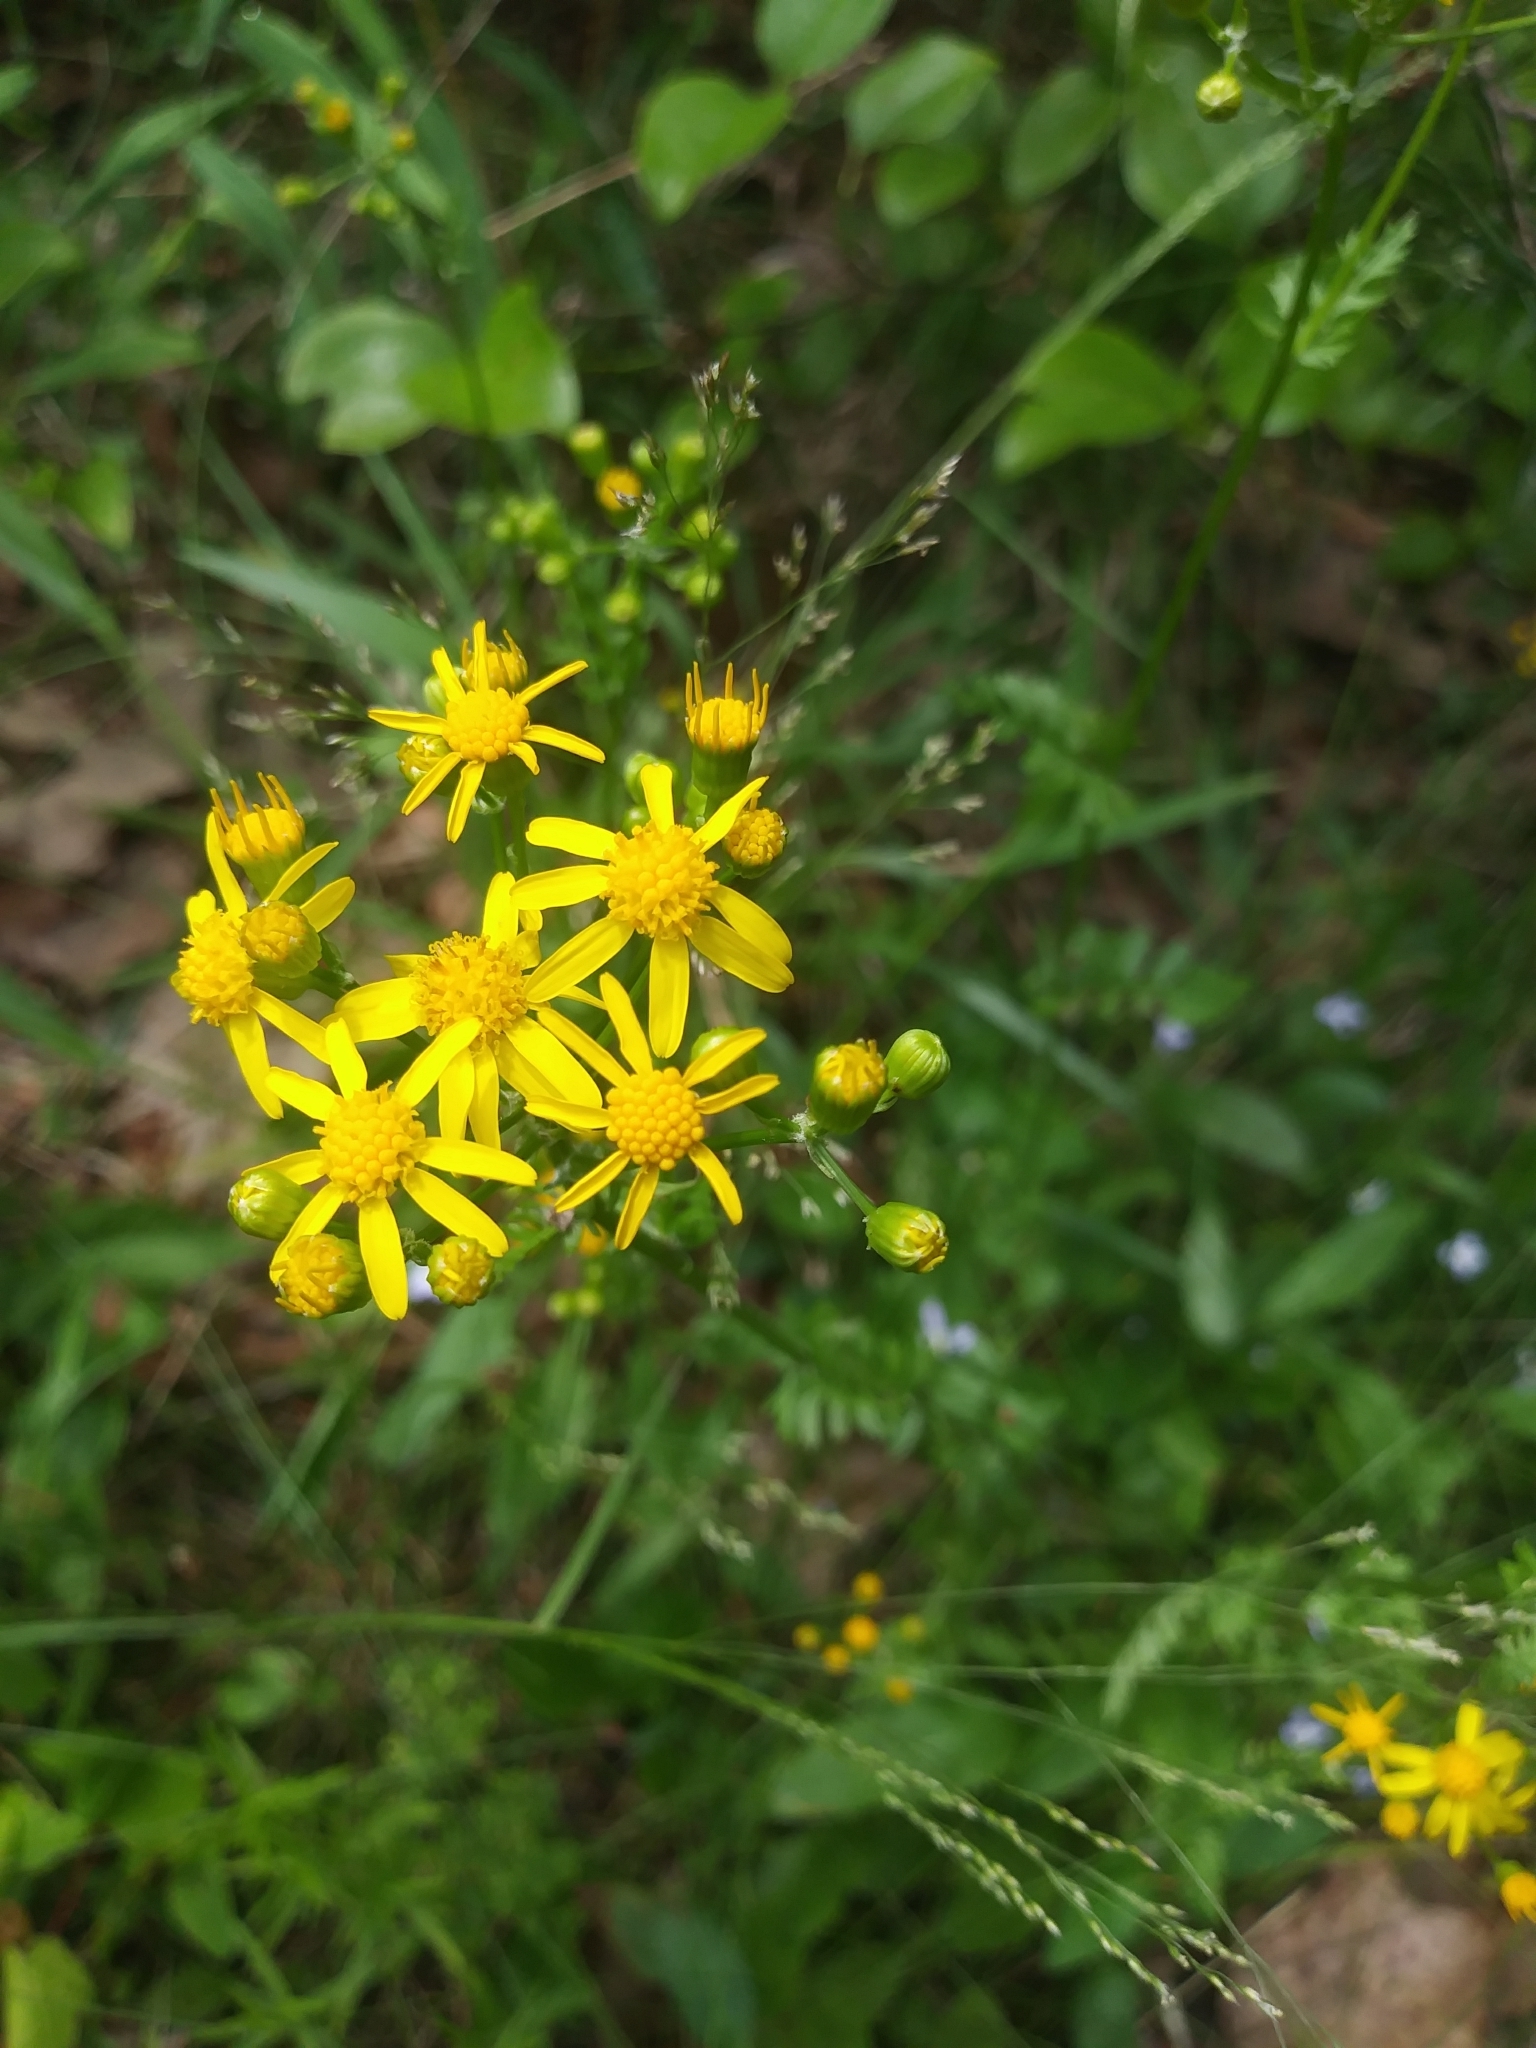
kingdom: Plantae
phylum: Tracheophyta
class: Magnoliopsida
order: Asterales
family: Asteraceae
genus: Packera
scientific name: Packera anonyma
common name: Small ragwort
